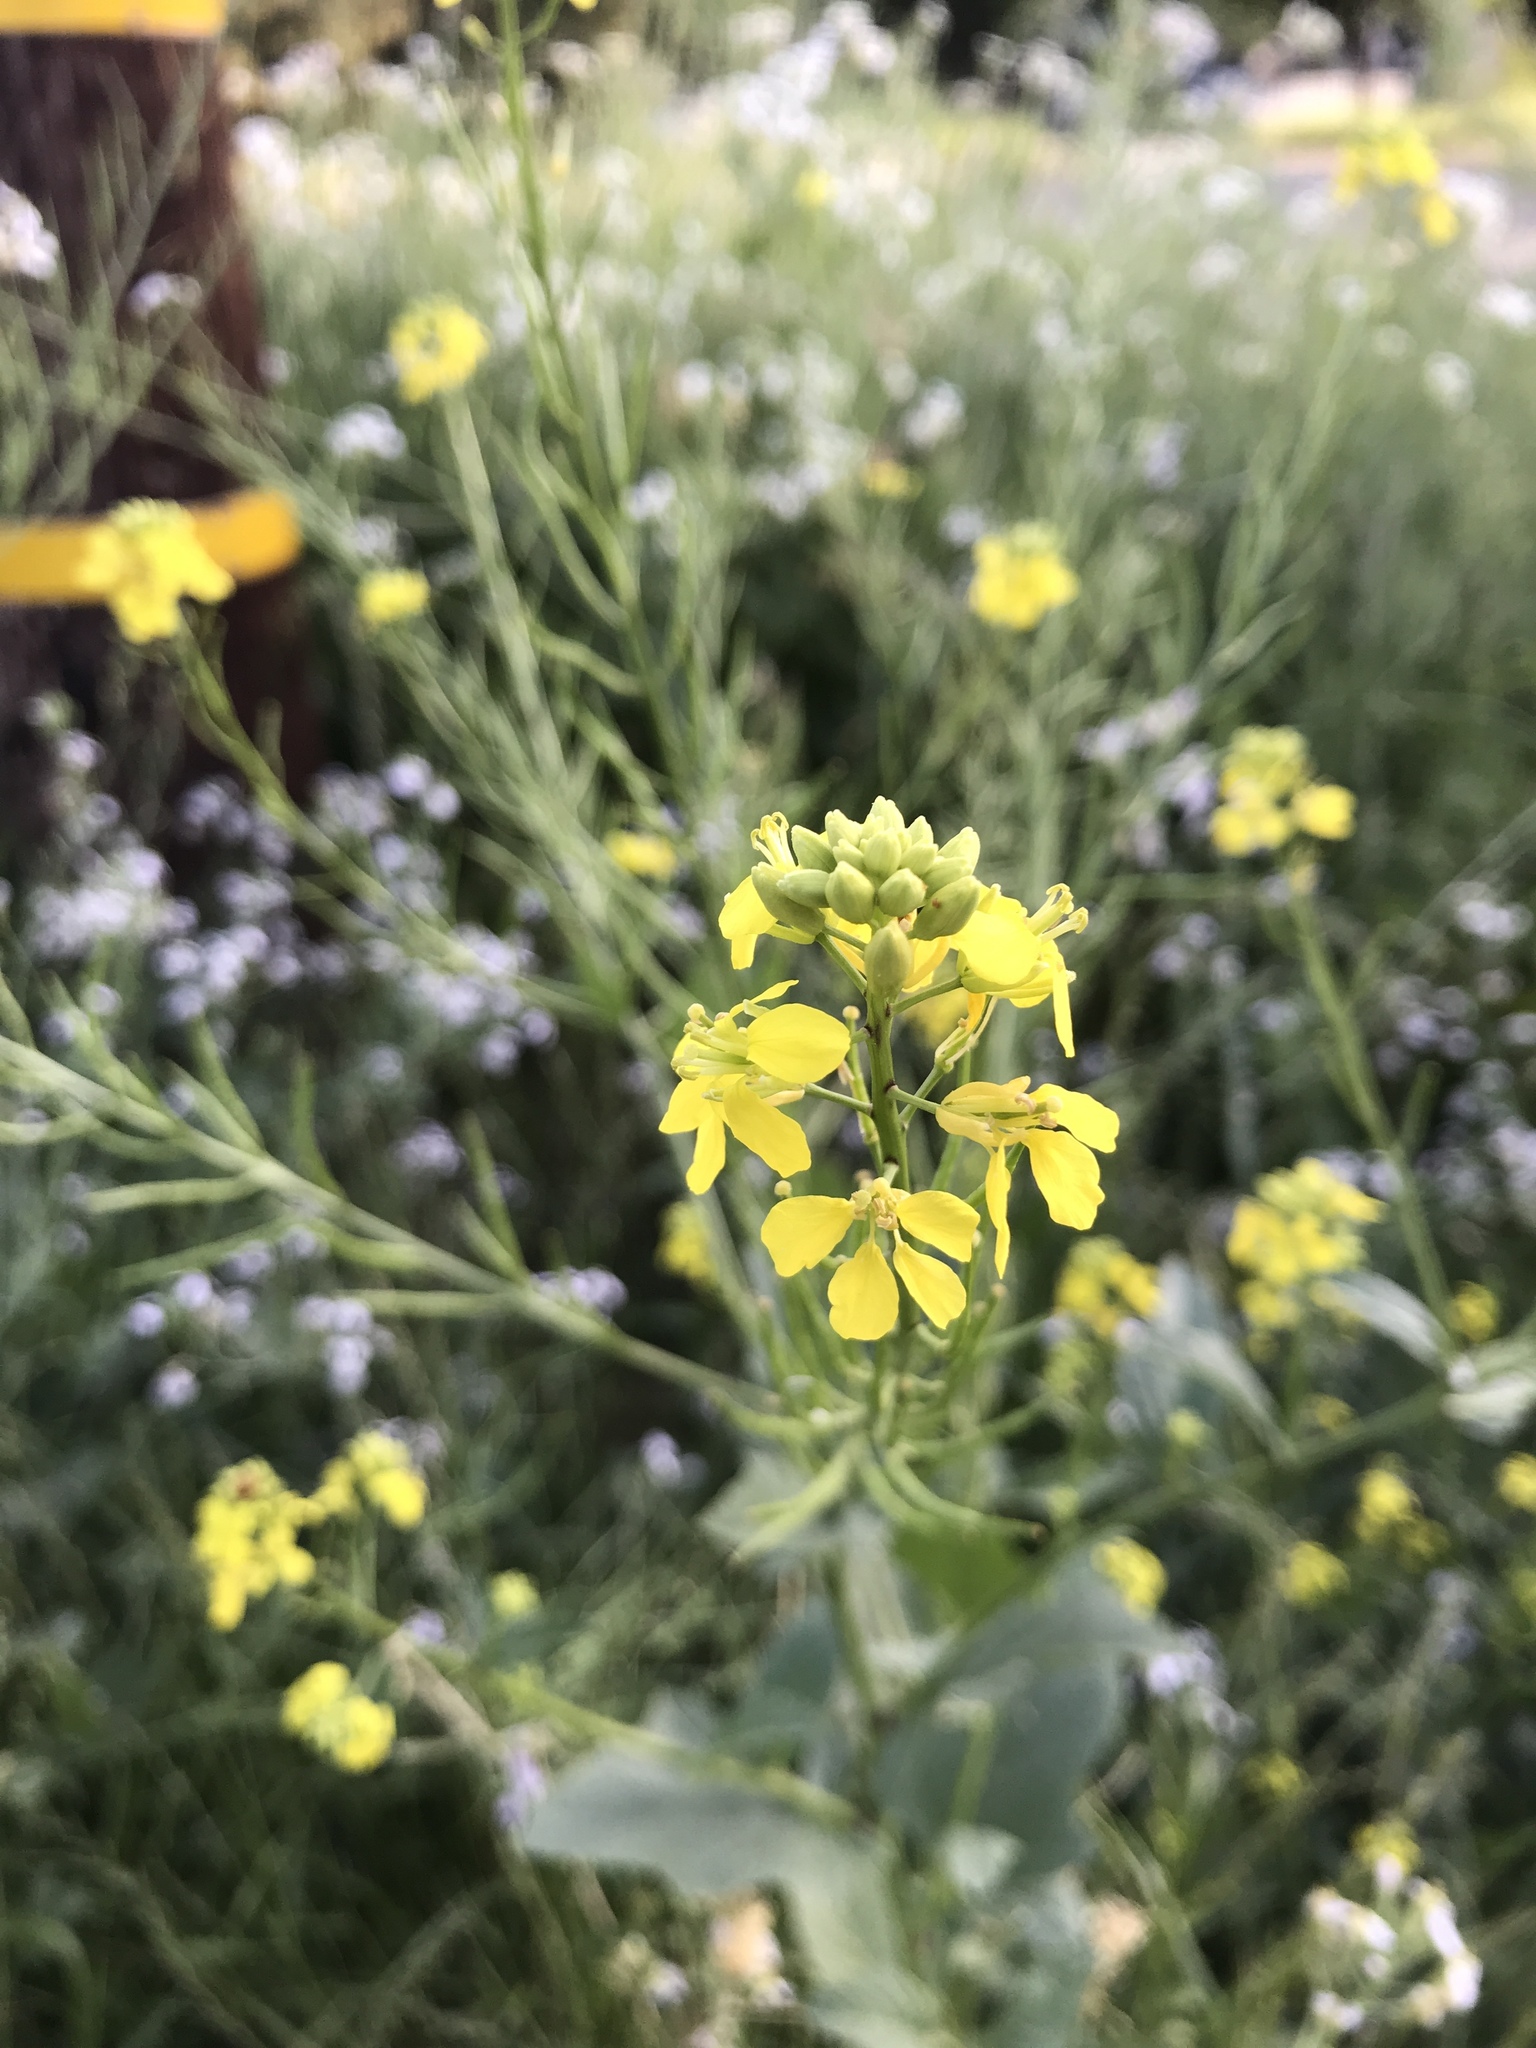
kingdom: Plantae
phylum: Tracheophyta
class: Magnoliopsida
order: Brassicales
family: Brassicaceae
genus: Brassica
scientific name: Brassica rapa
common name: Field mustard
